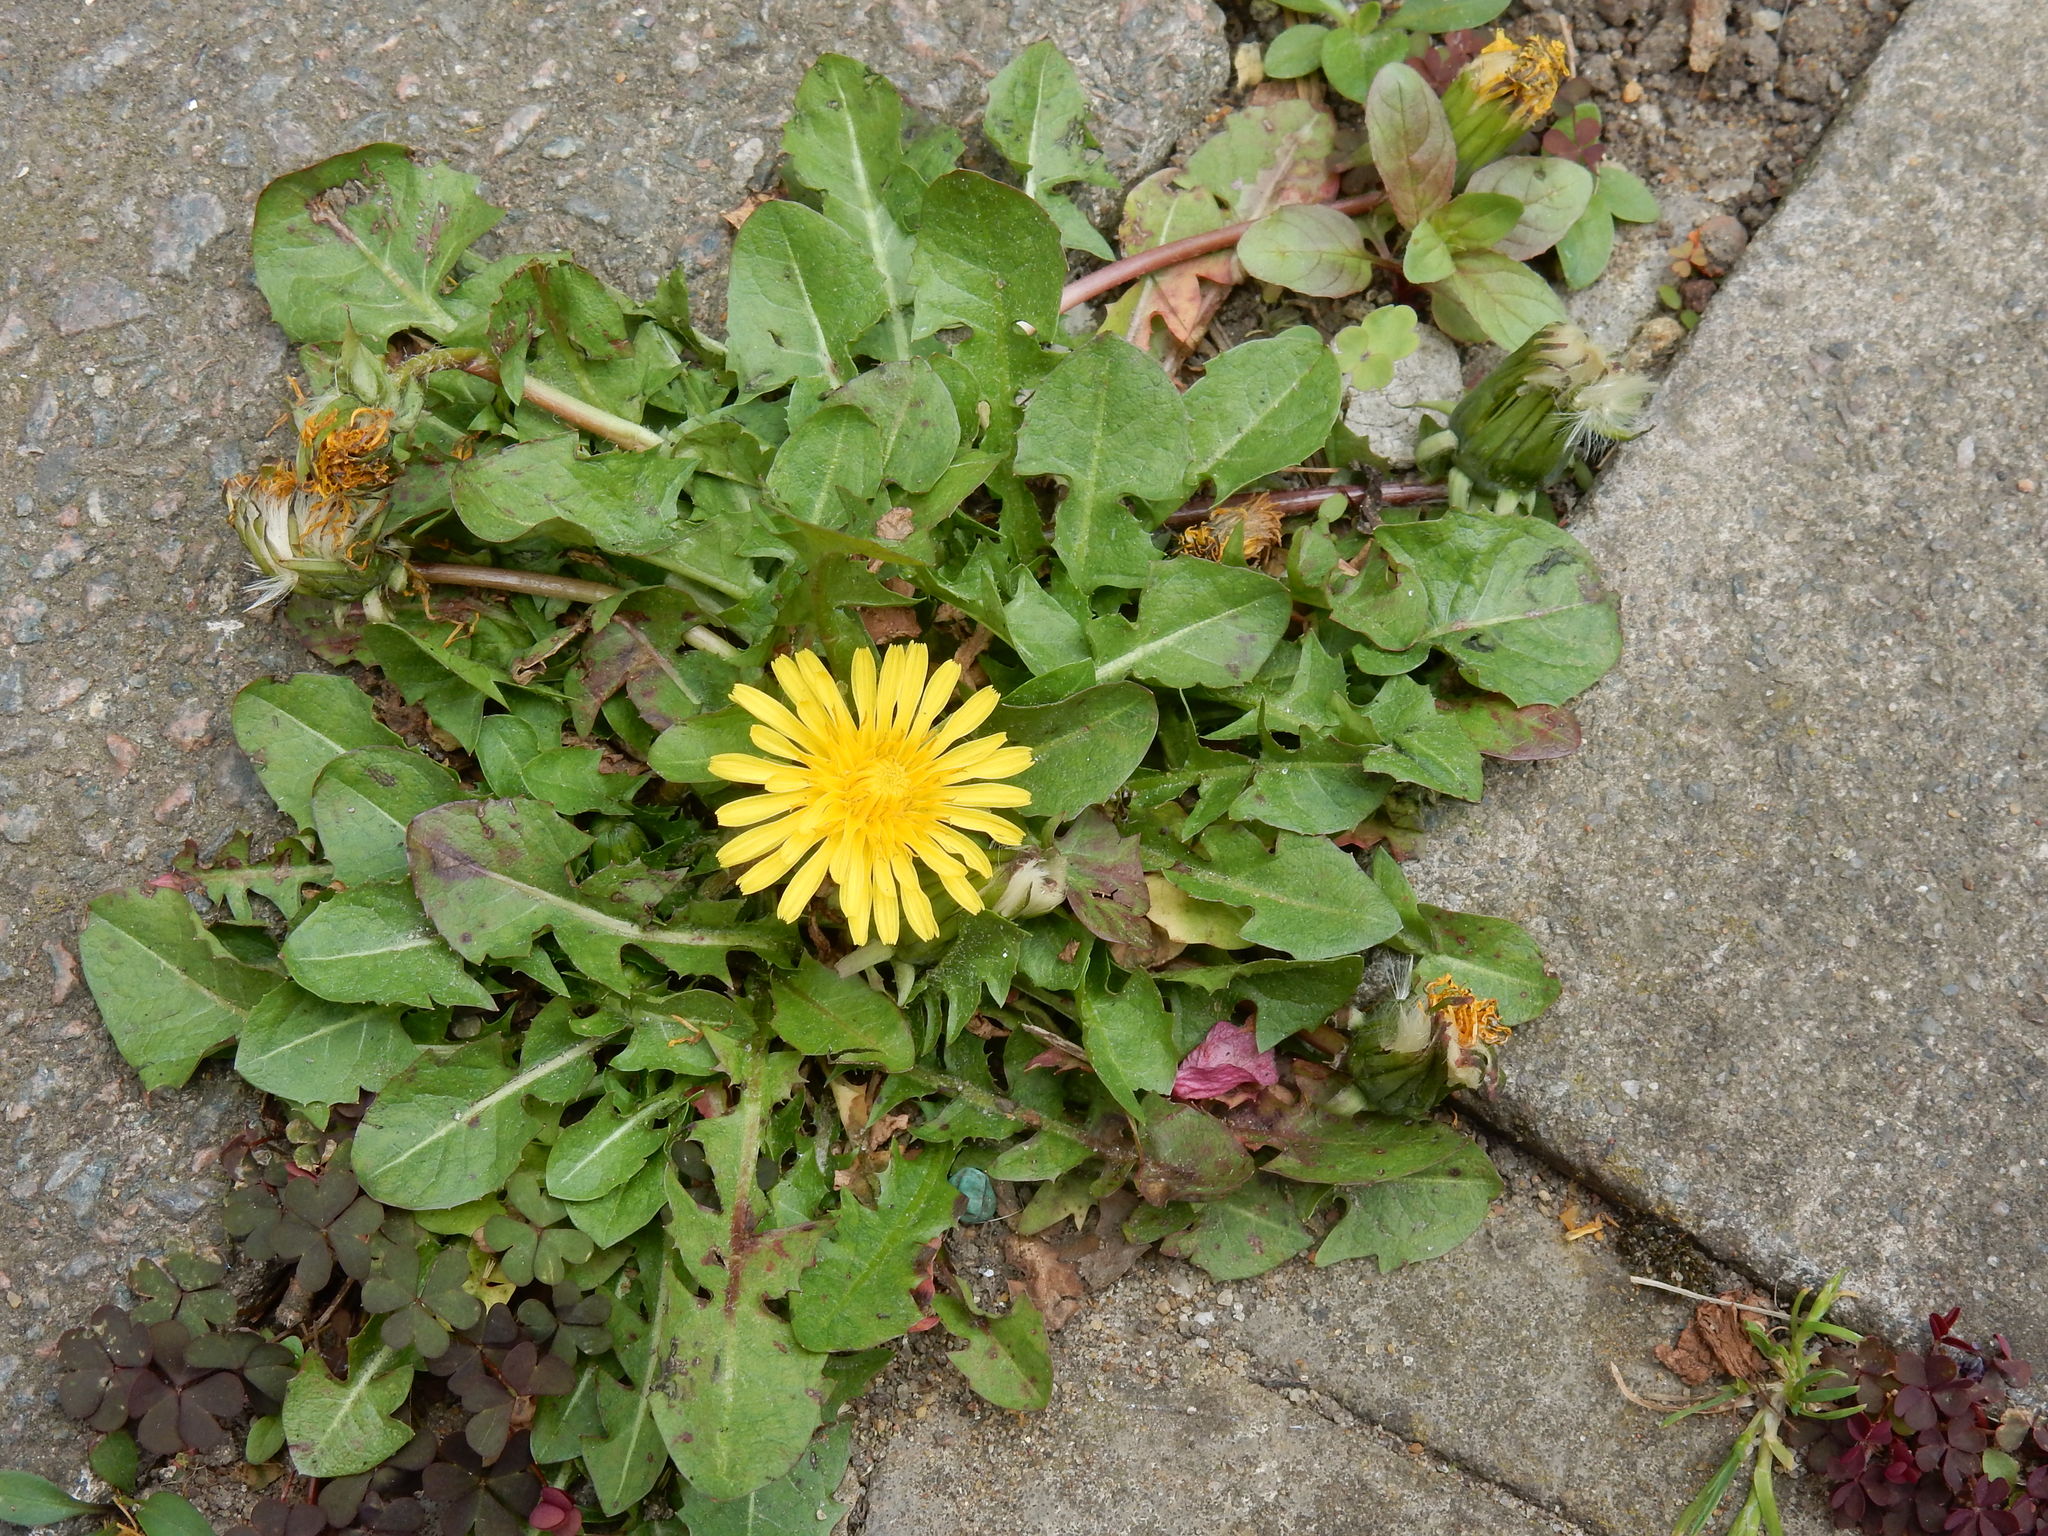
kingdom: Plantae
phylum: Tracheophyta
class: Magnoliopsida
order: Asterales
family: Asteraceae
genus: Taraxacum
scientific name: Taraxacum officinale
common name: Common dandelion
